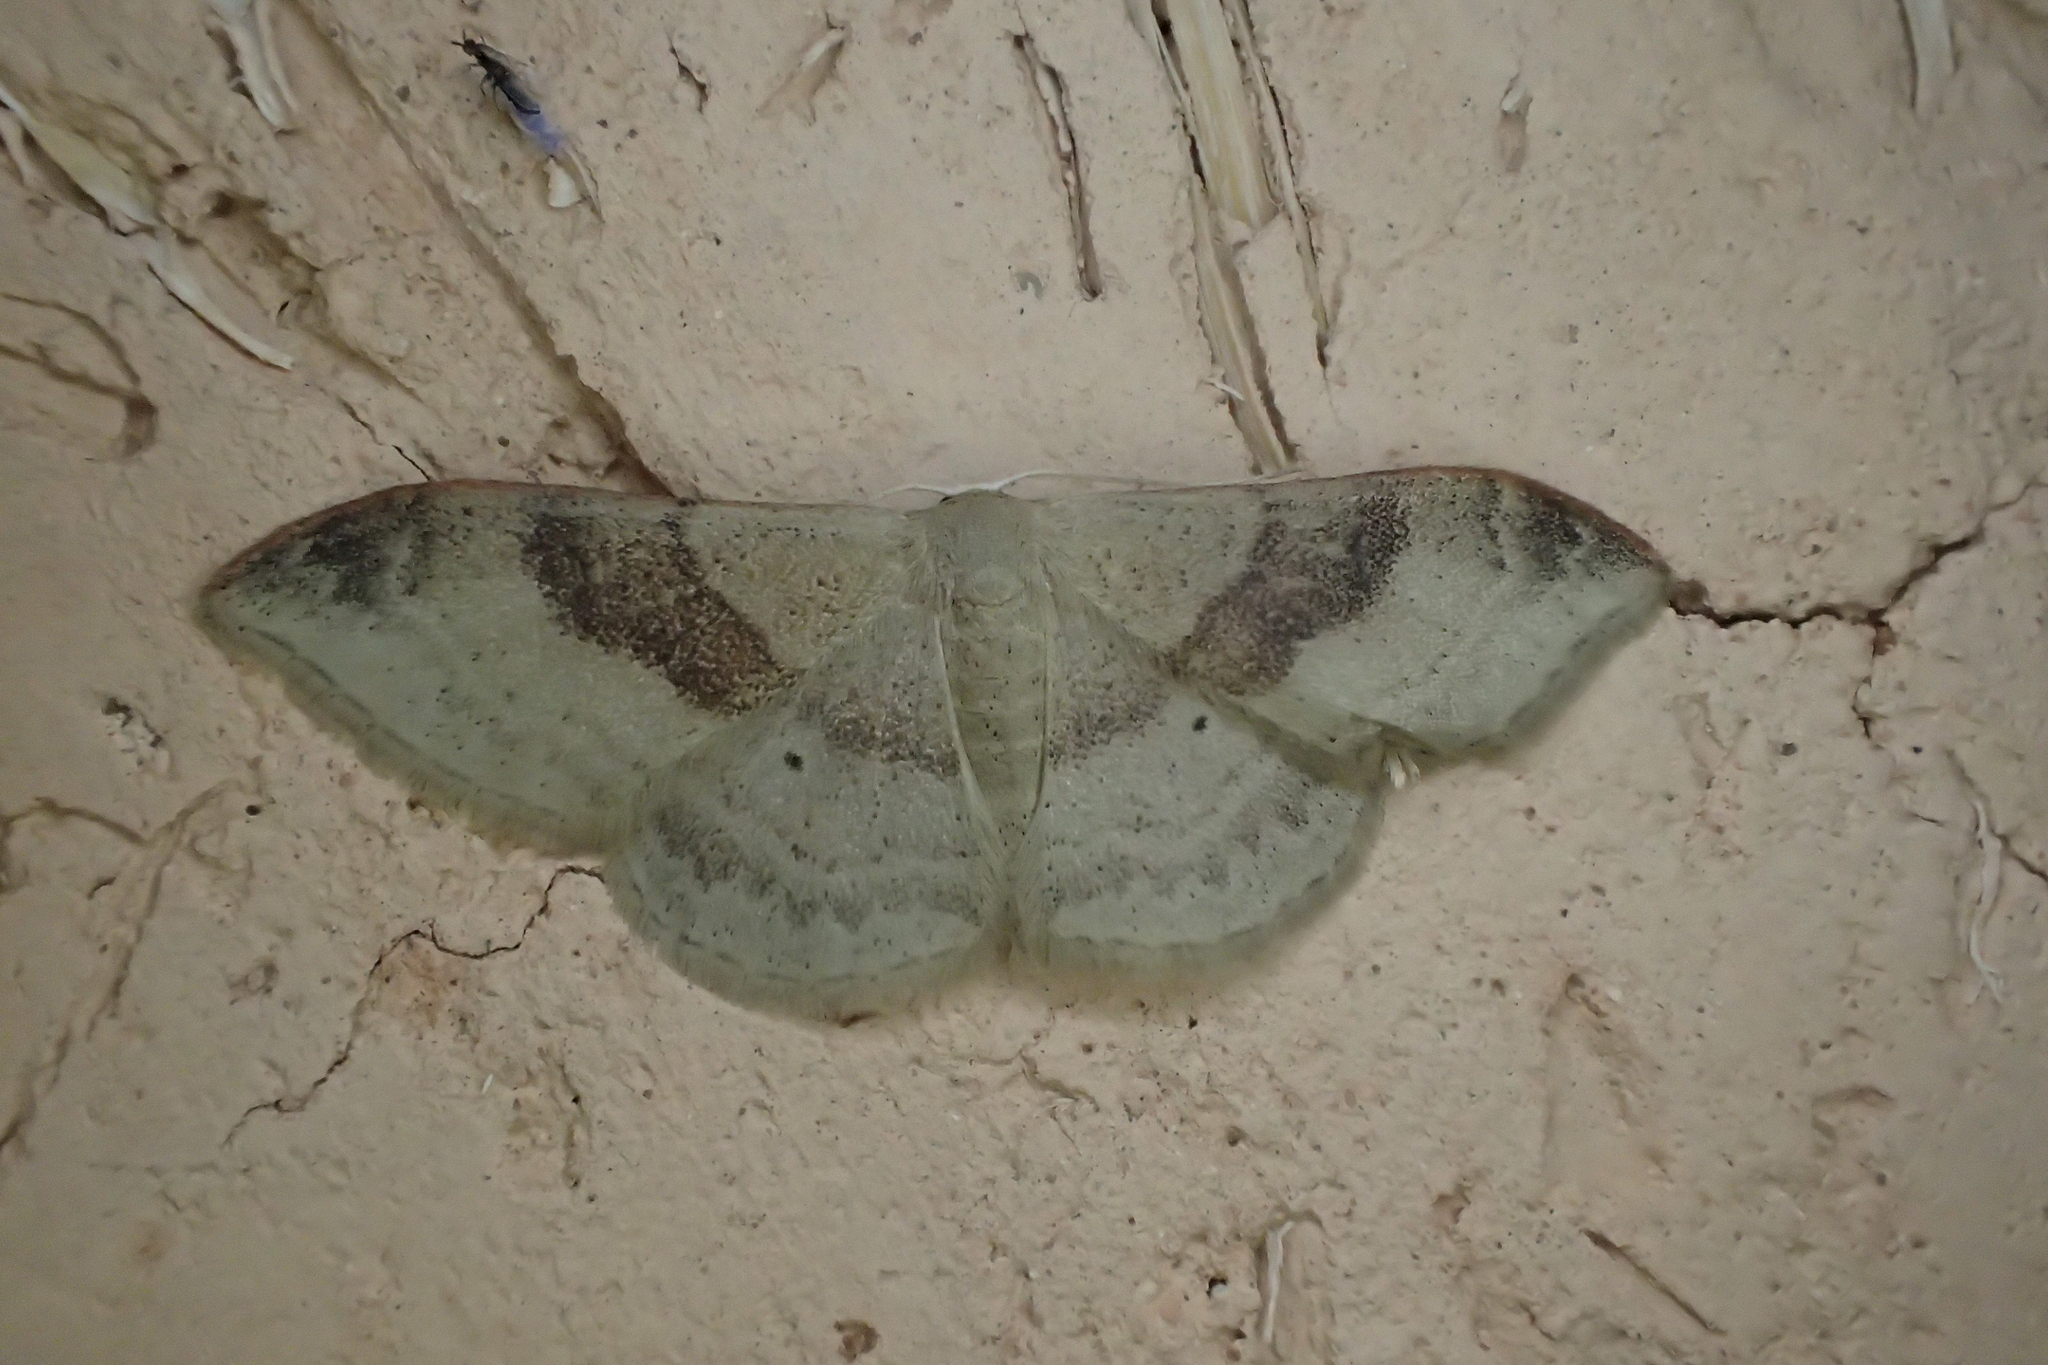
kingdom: Animalia
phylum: Arthropoda
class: Insecta
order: Lepidoptera
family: Geometridae
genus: Idaea
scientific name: Idaea degeneraria
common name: Portland ribbon wave
